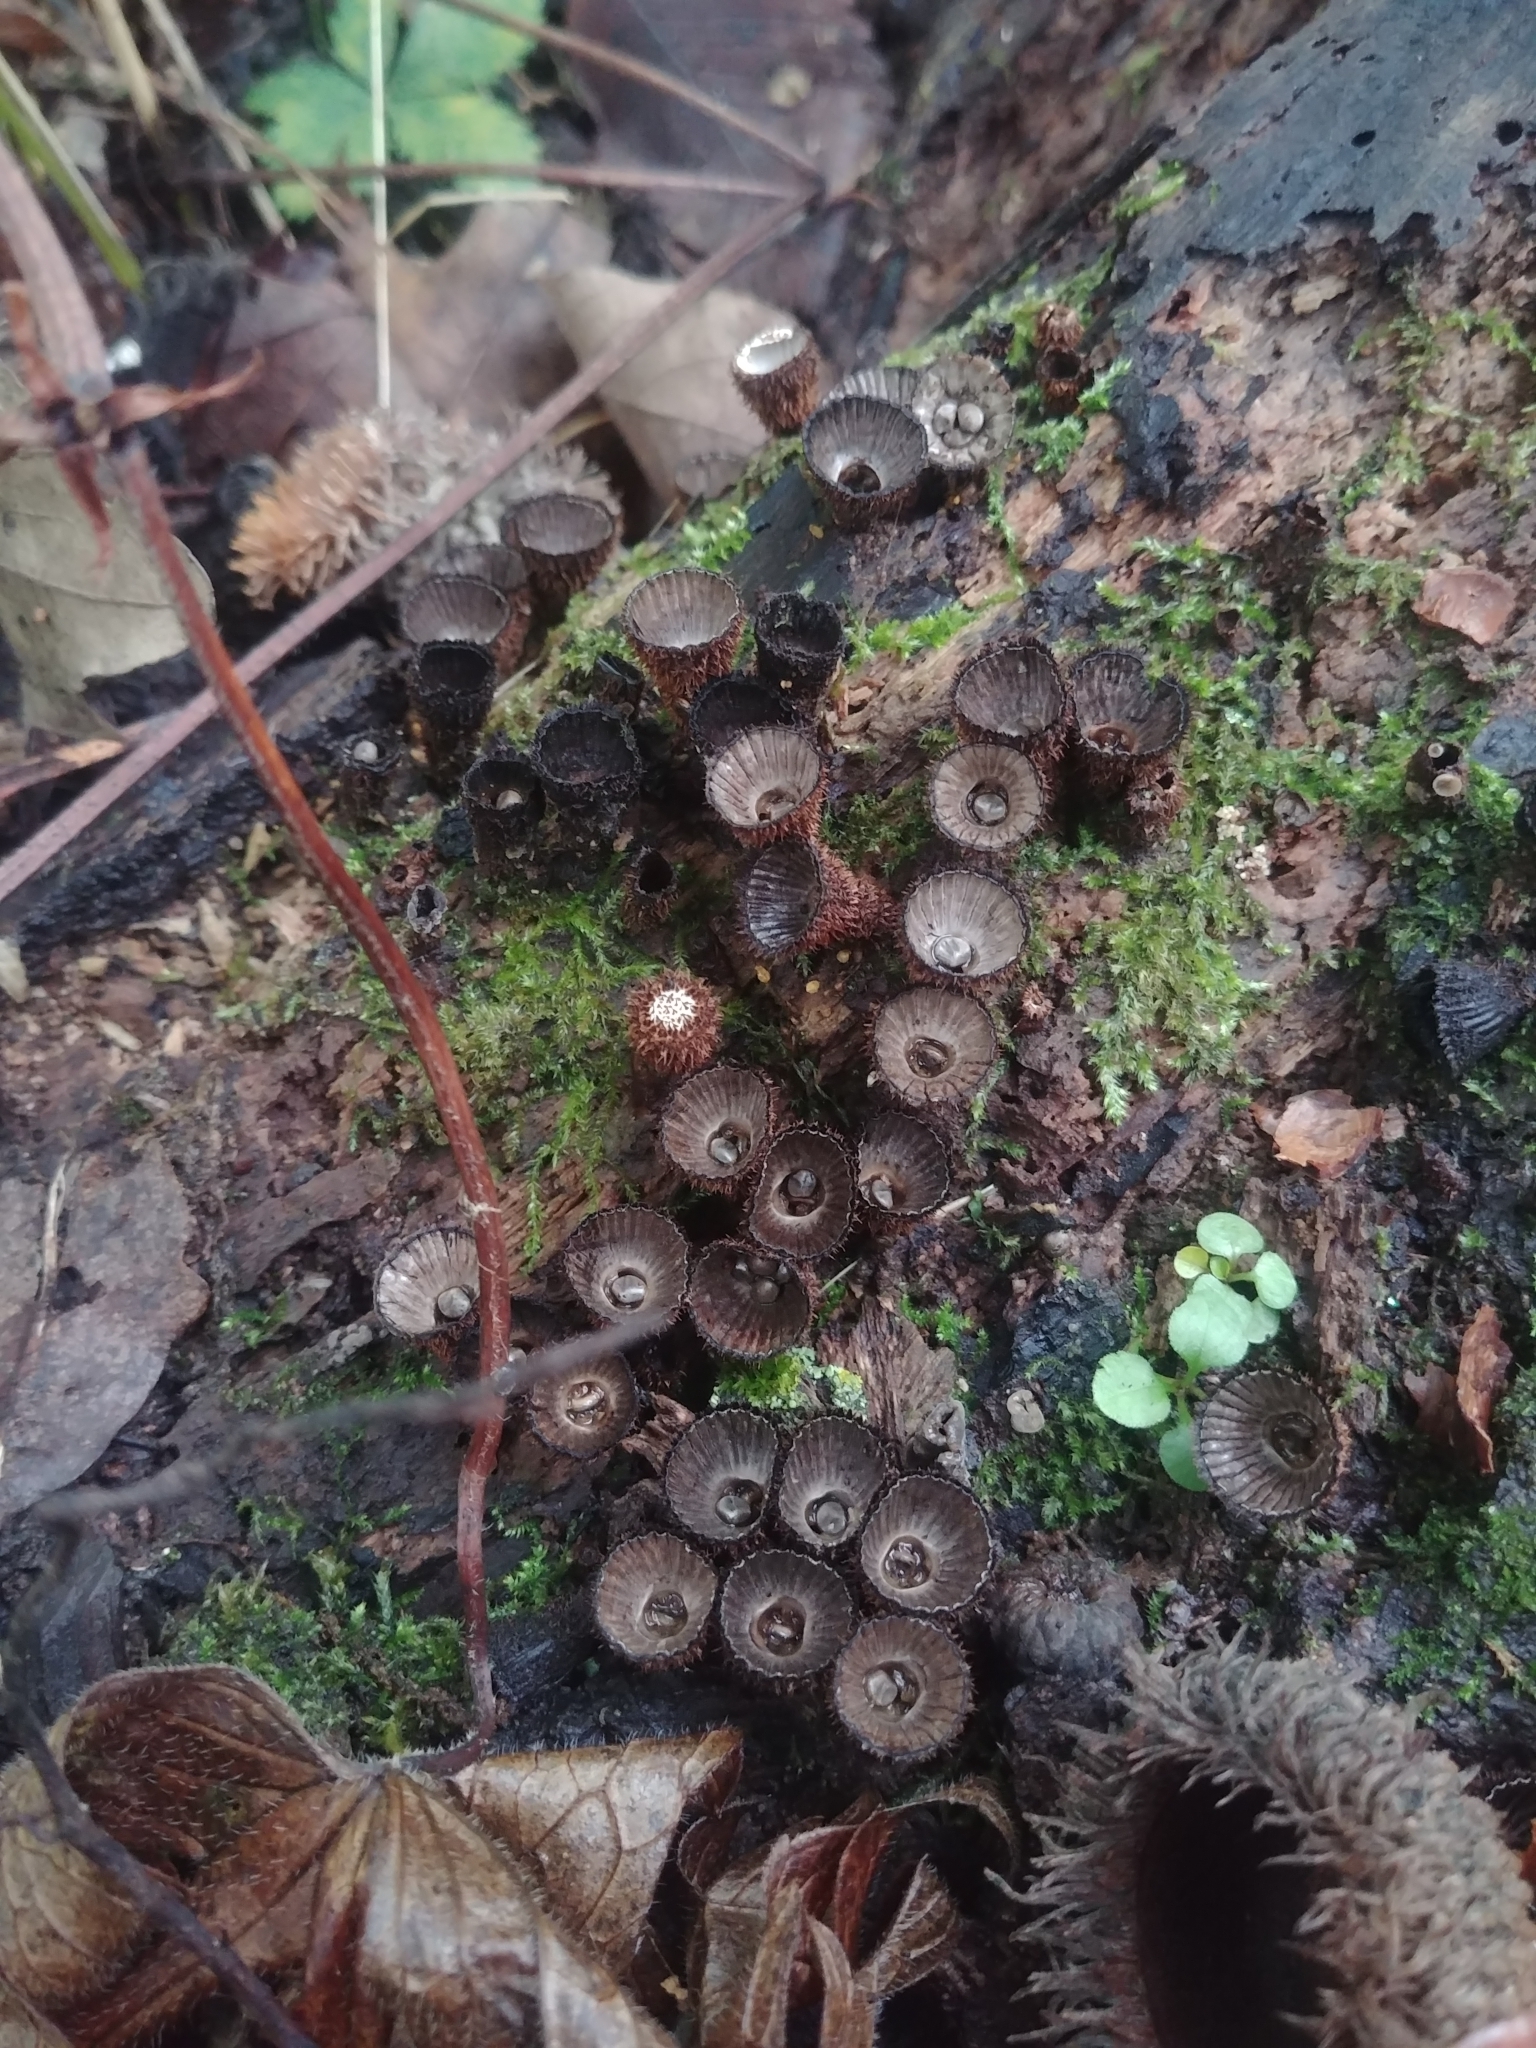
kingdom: Fungi
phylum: Basidiomycota
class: Agaricomycetes
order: Agaricales
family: Agaricaceae
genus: Cyathus
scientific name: Cyathus striatus
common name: Fluted bird's nest
